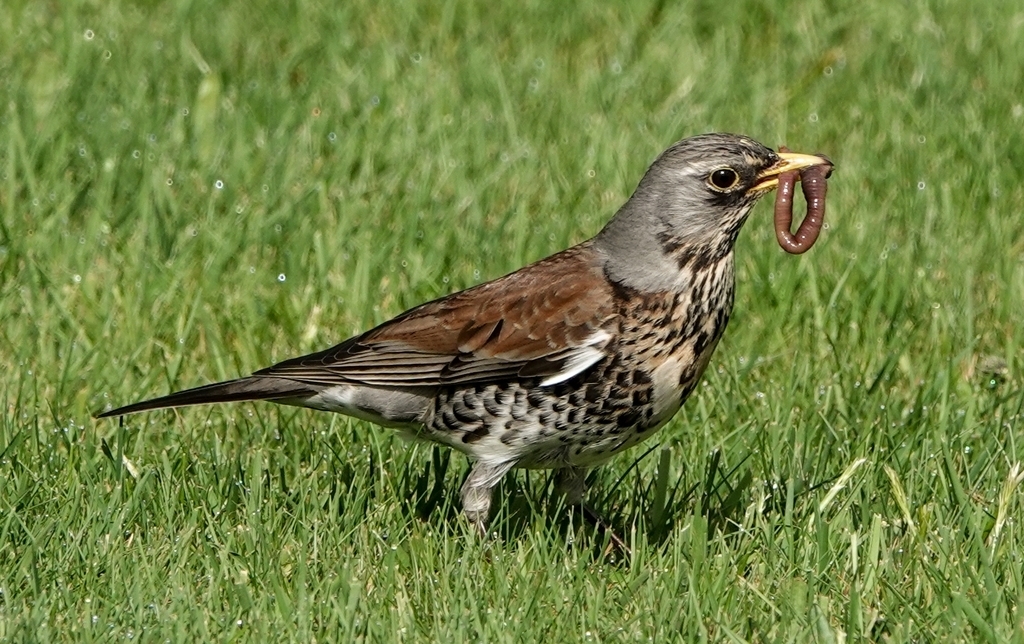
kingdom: Animalia
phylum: Chordata
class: Aves
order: Passeriformes
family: Turdidae
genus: Turdus
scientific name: Turdus pilaris
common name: Fieldfare
